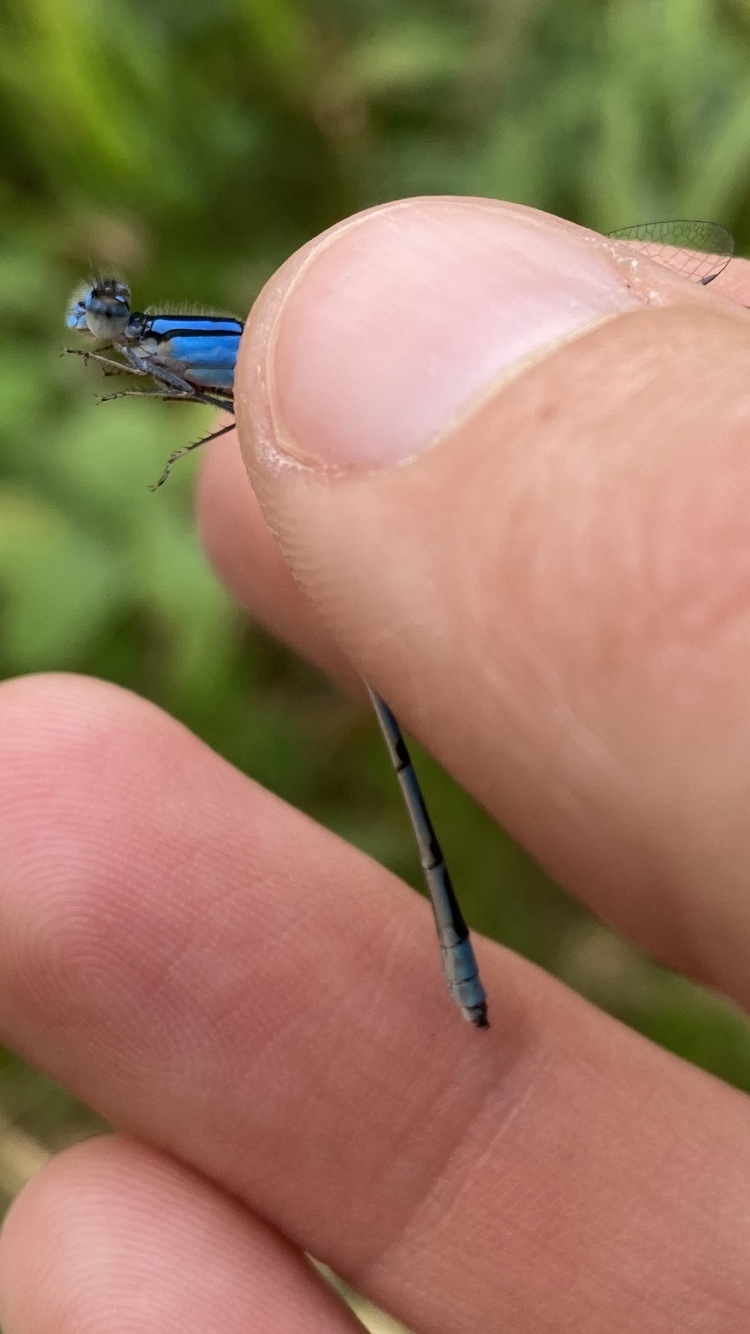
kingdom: Animalia
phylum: Arthropoda
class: Insecta
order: Odonata
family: Coenagrionidae
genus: Enallagma
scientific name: Enallagma civile
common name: Damselfly
